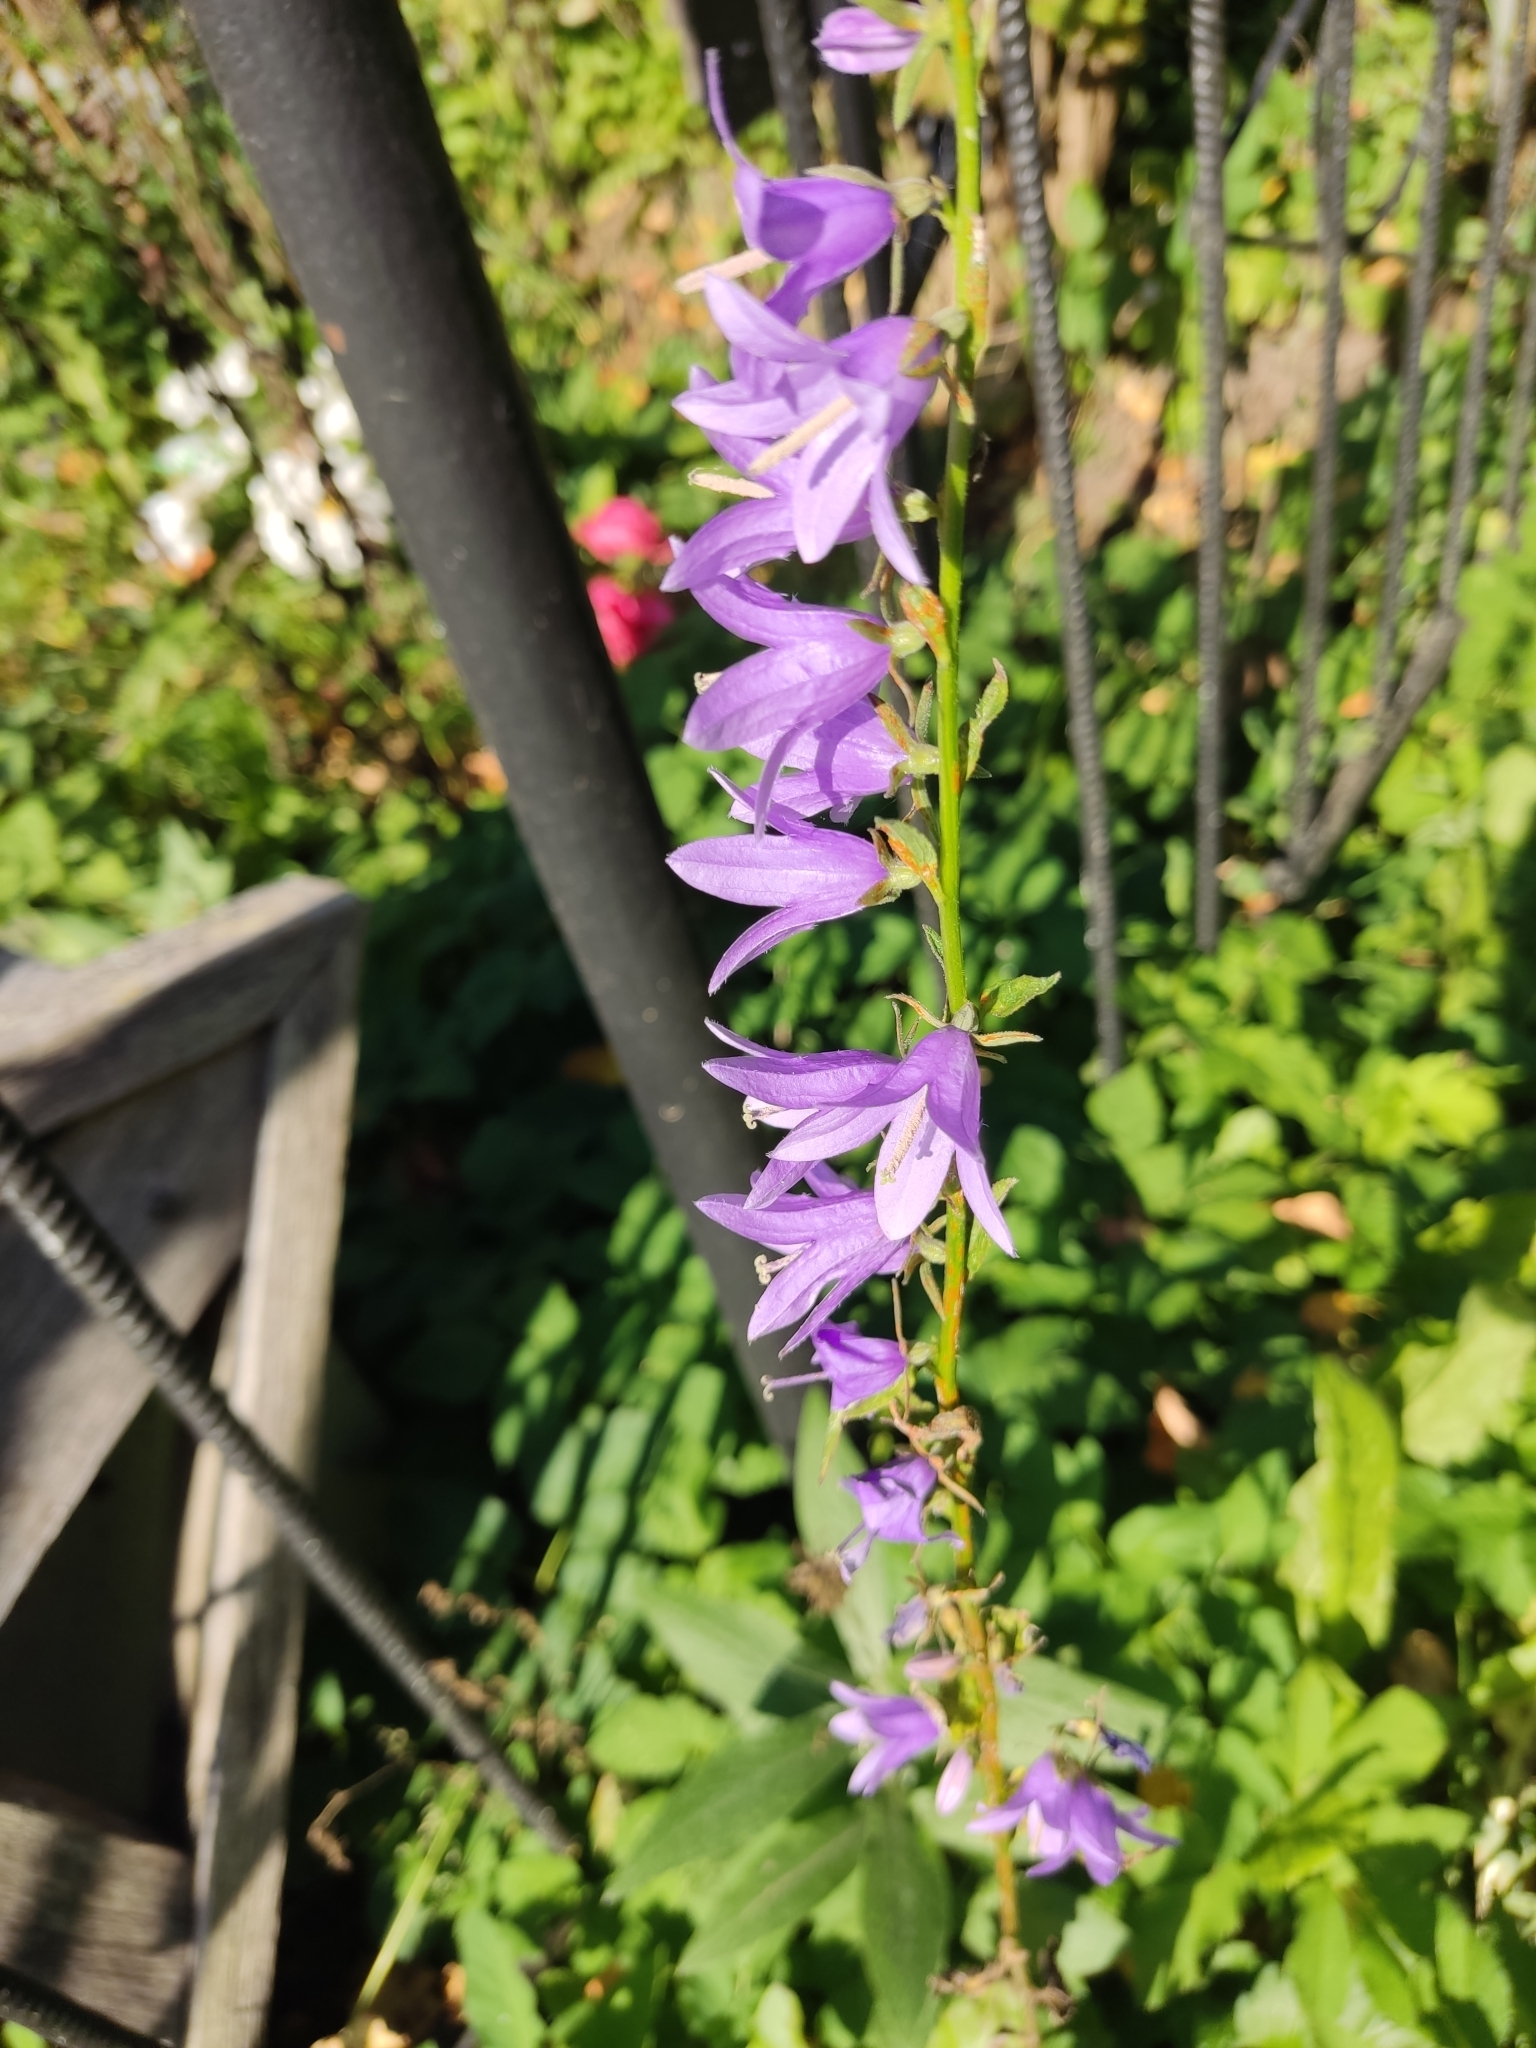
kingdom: Plantae
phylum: Tracheophyta
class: Magnoliopsida
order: Asterales
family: Campanulaceae
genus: Campanula
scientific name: Campanula rapunculoides
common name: Creeping bellflower
